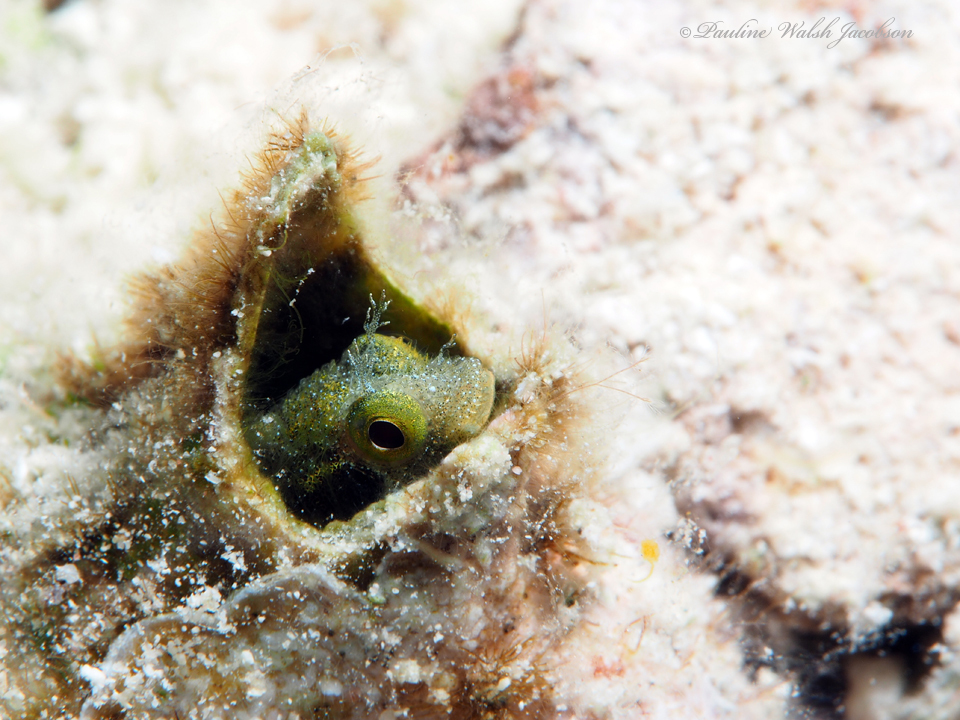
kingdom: Animalia
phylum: Chordata
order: Perciformes
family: Chaenopsidae
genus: Acanthemblemaria
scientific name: Acanthemblemaria spinosa
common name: Spinyhead blenny
